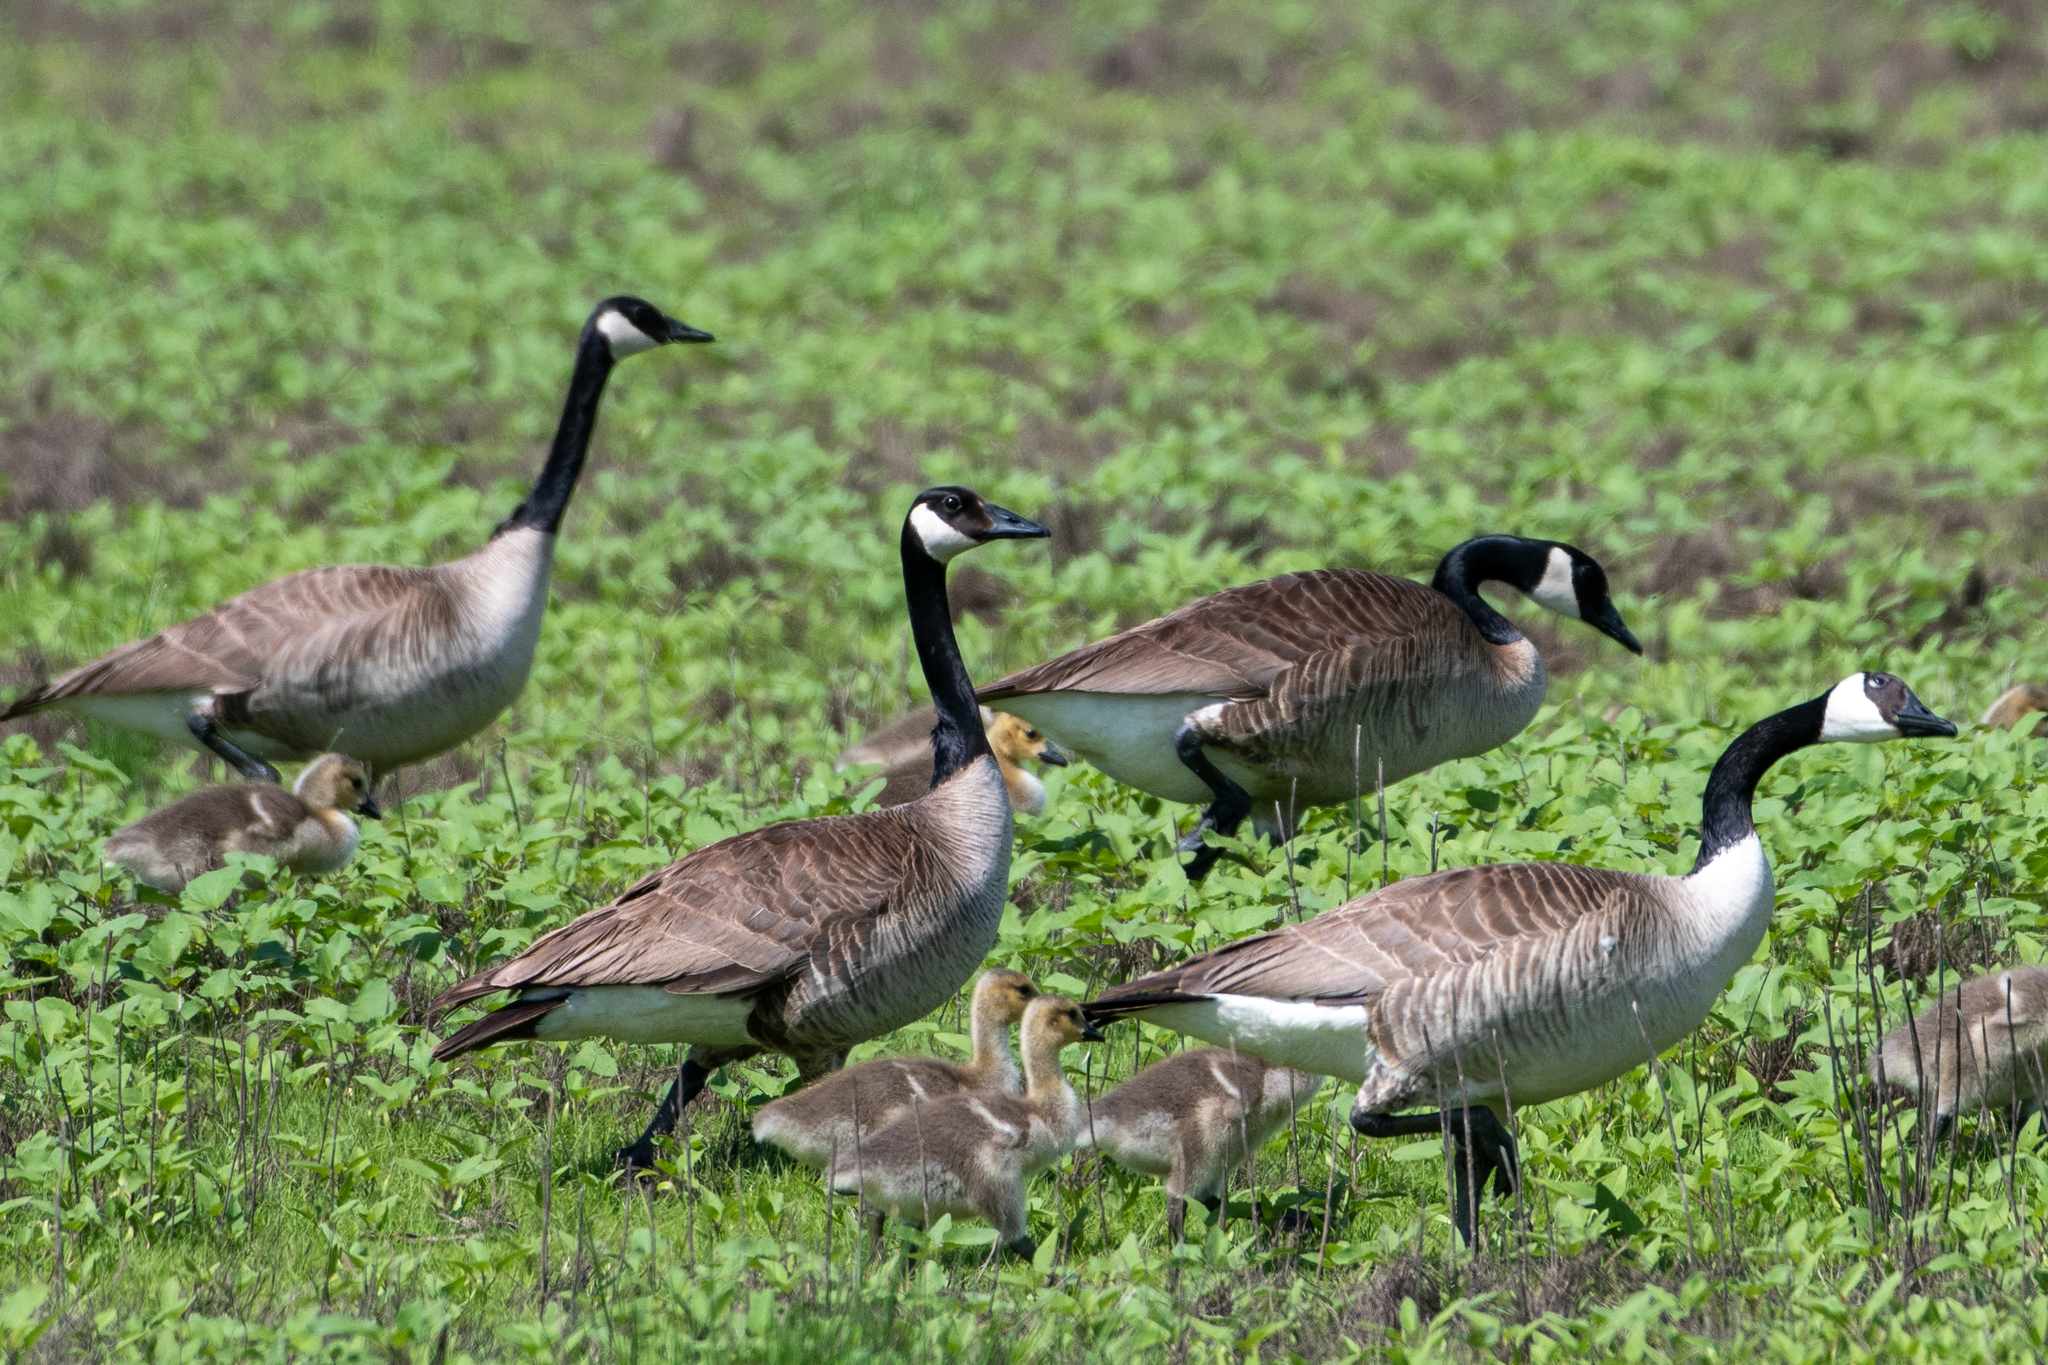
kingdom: Animalia
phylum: Chordata
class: Aves
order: Anseriformes
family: Anatidae
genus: Branta
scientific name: Branta canadensis
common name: Canada goose
